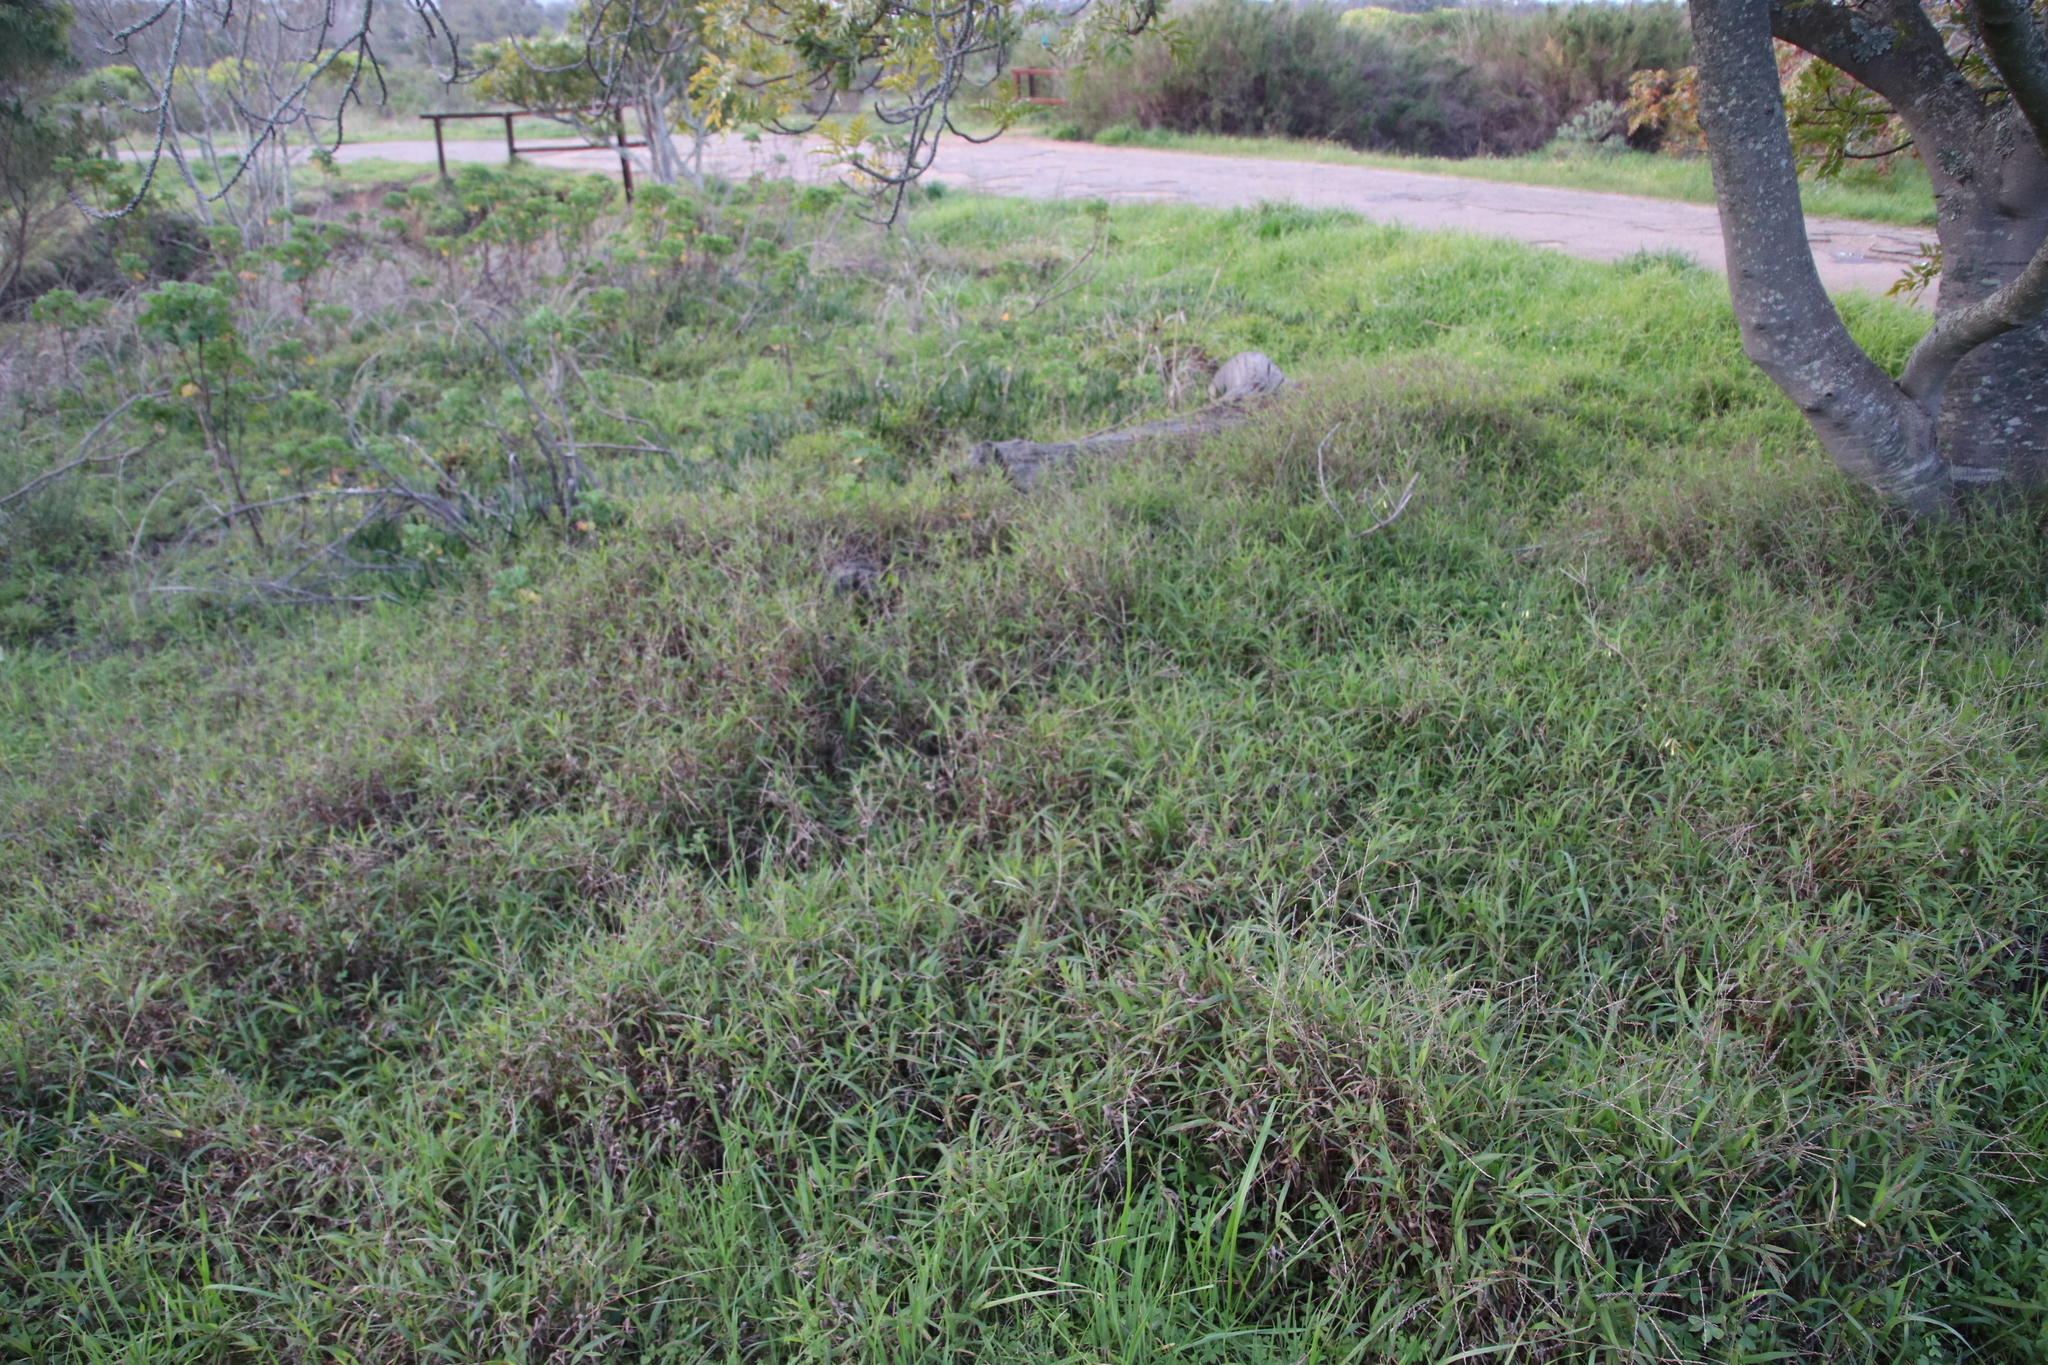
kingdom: Plantae
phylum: Tracheophyta
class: Liliopsida
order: Poales
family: Poaceae
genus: Ehrharta
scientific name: Ehrharta erecta
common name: Panic veldtgrass
